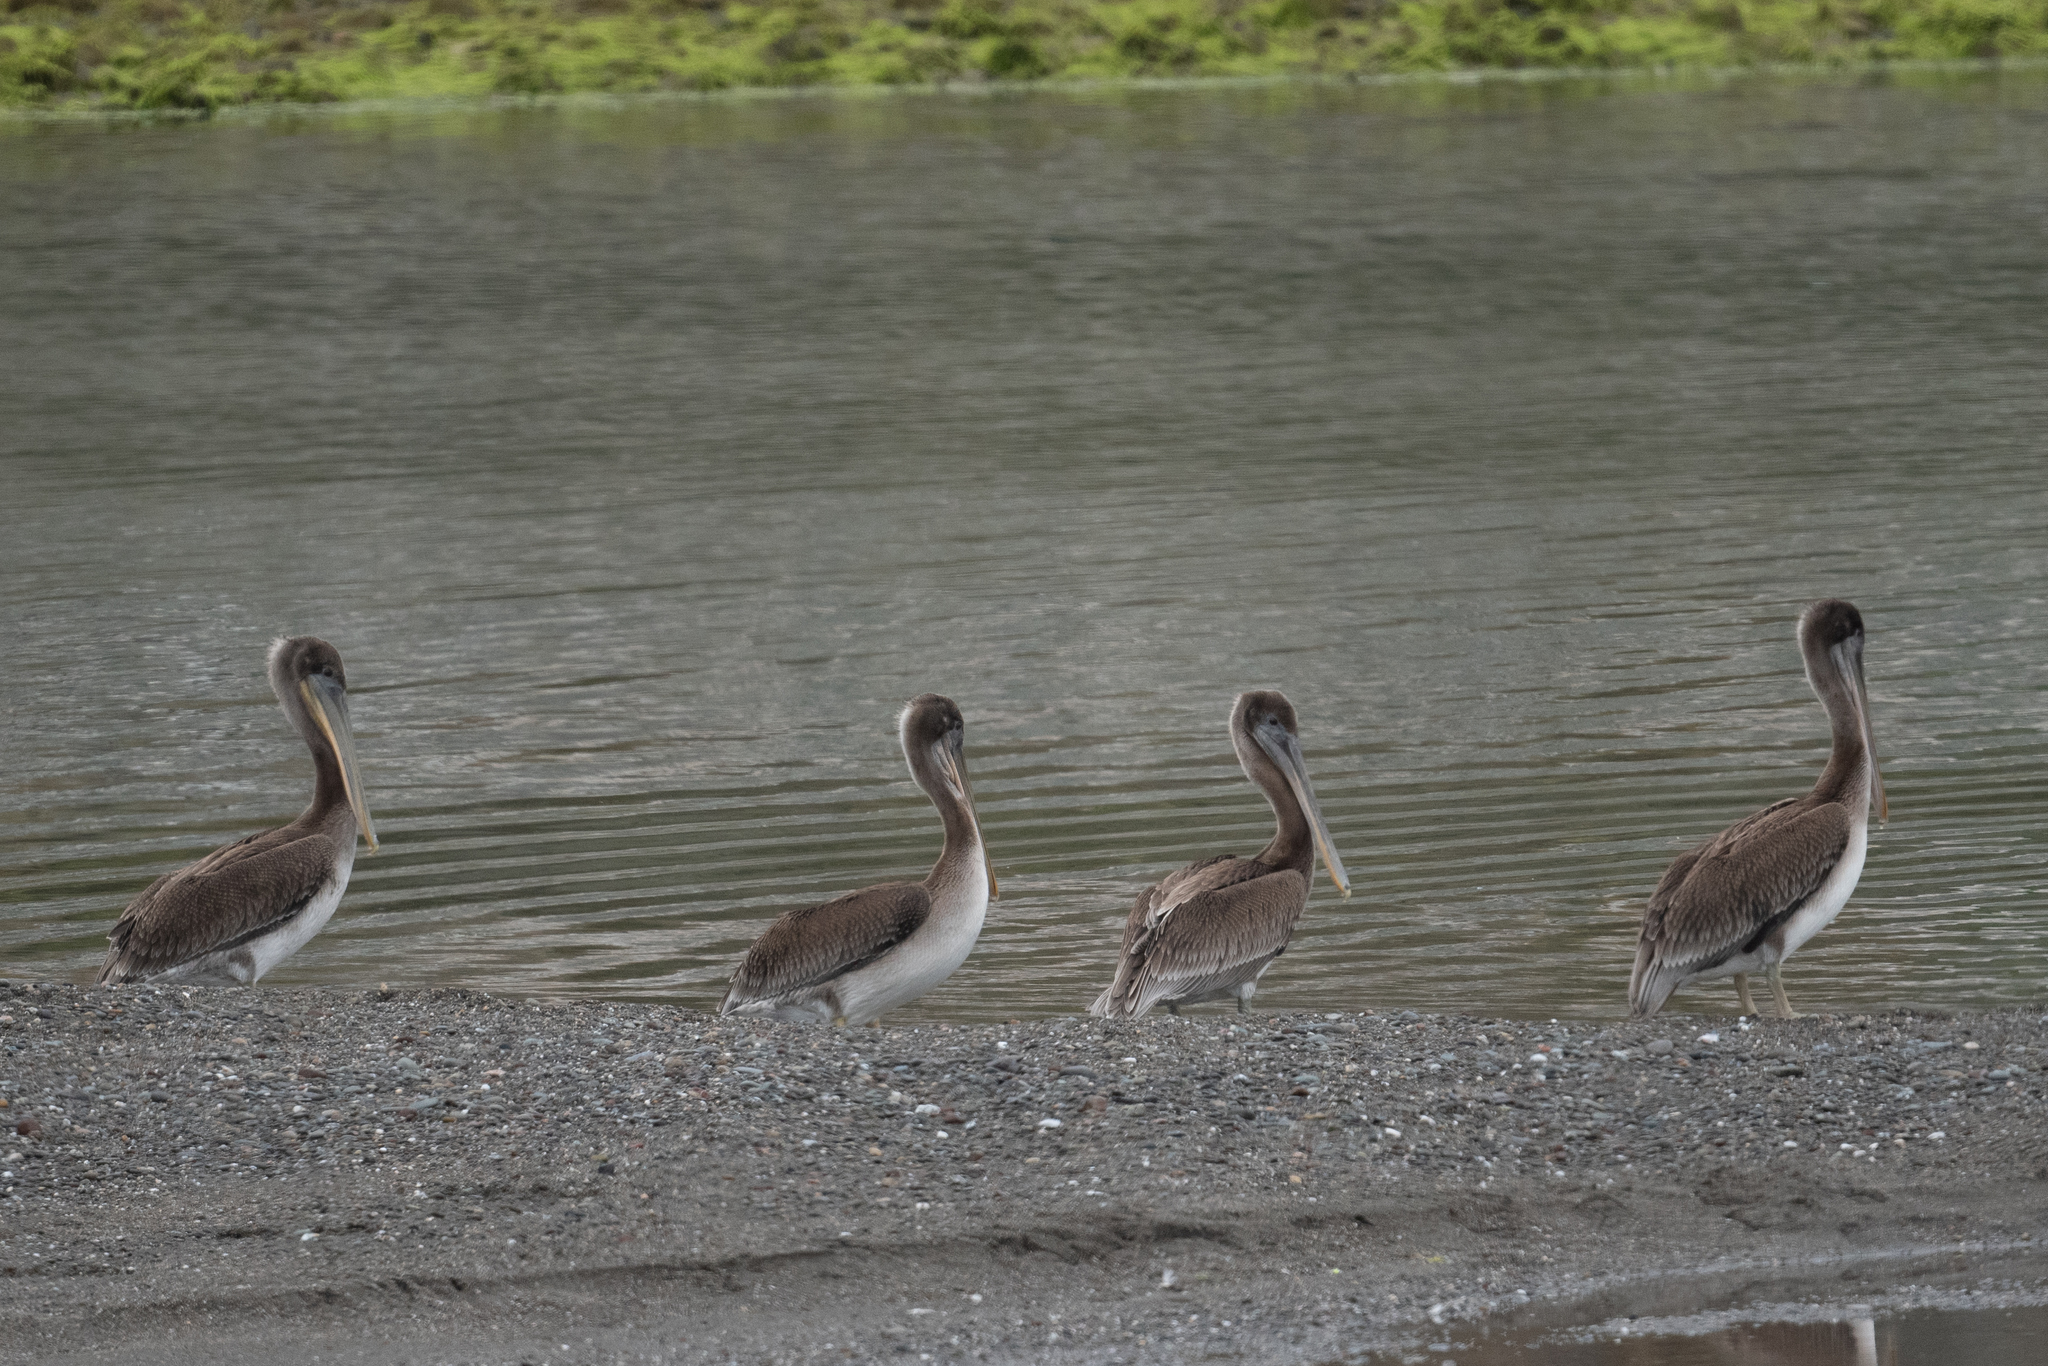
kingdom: Animalia
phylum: Chordata
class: Aves
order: Pelecaniformes
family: Pelecanidae
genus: Pelecanus
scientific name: Pelecanus occidentalis
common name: Brown pelican
